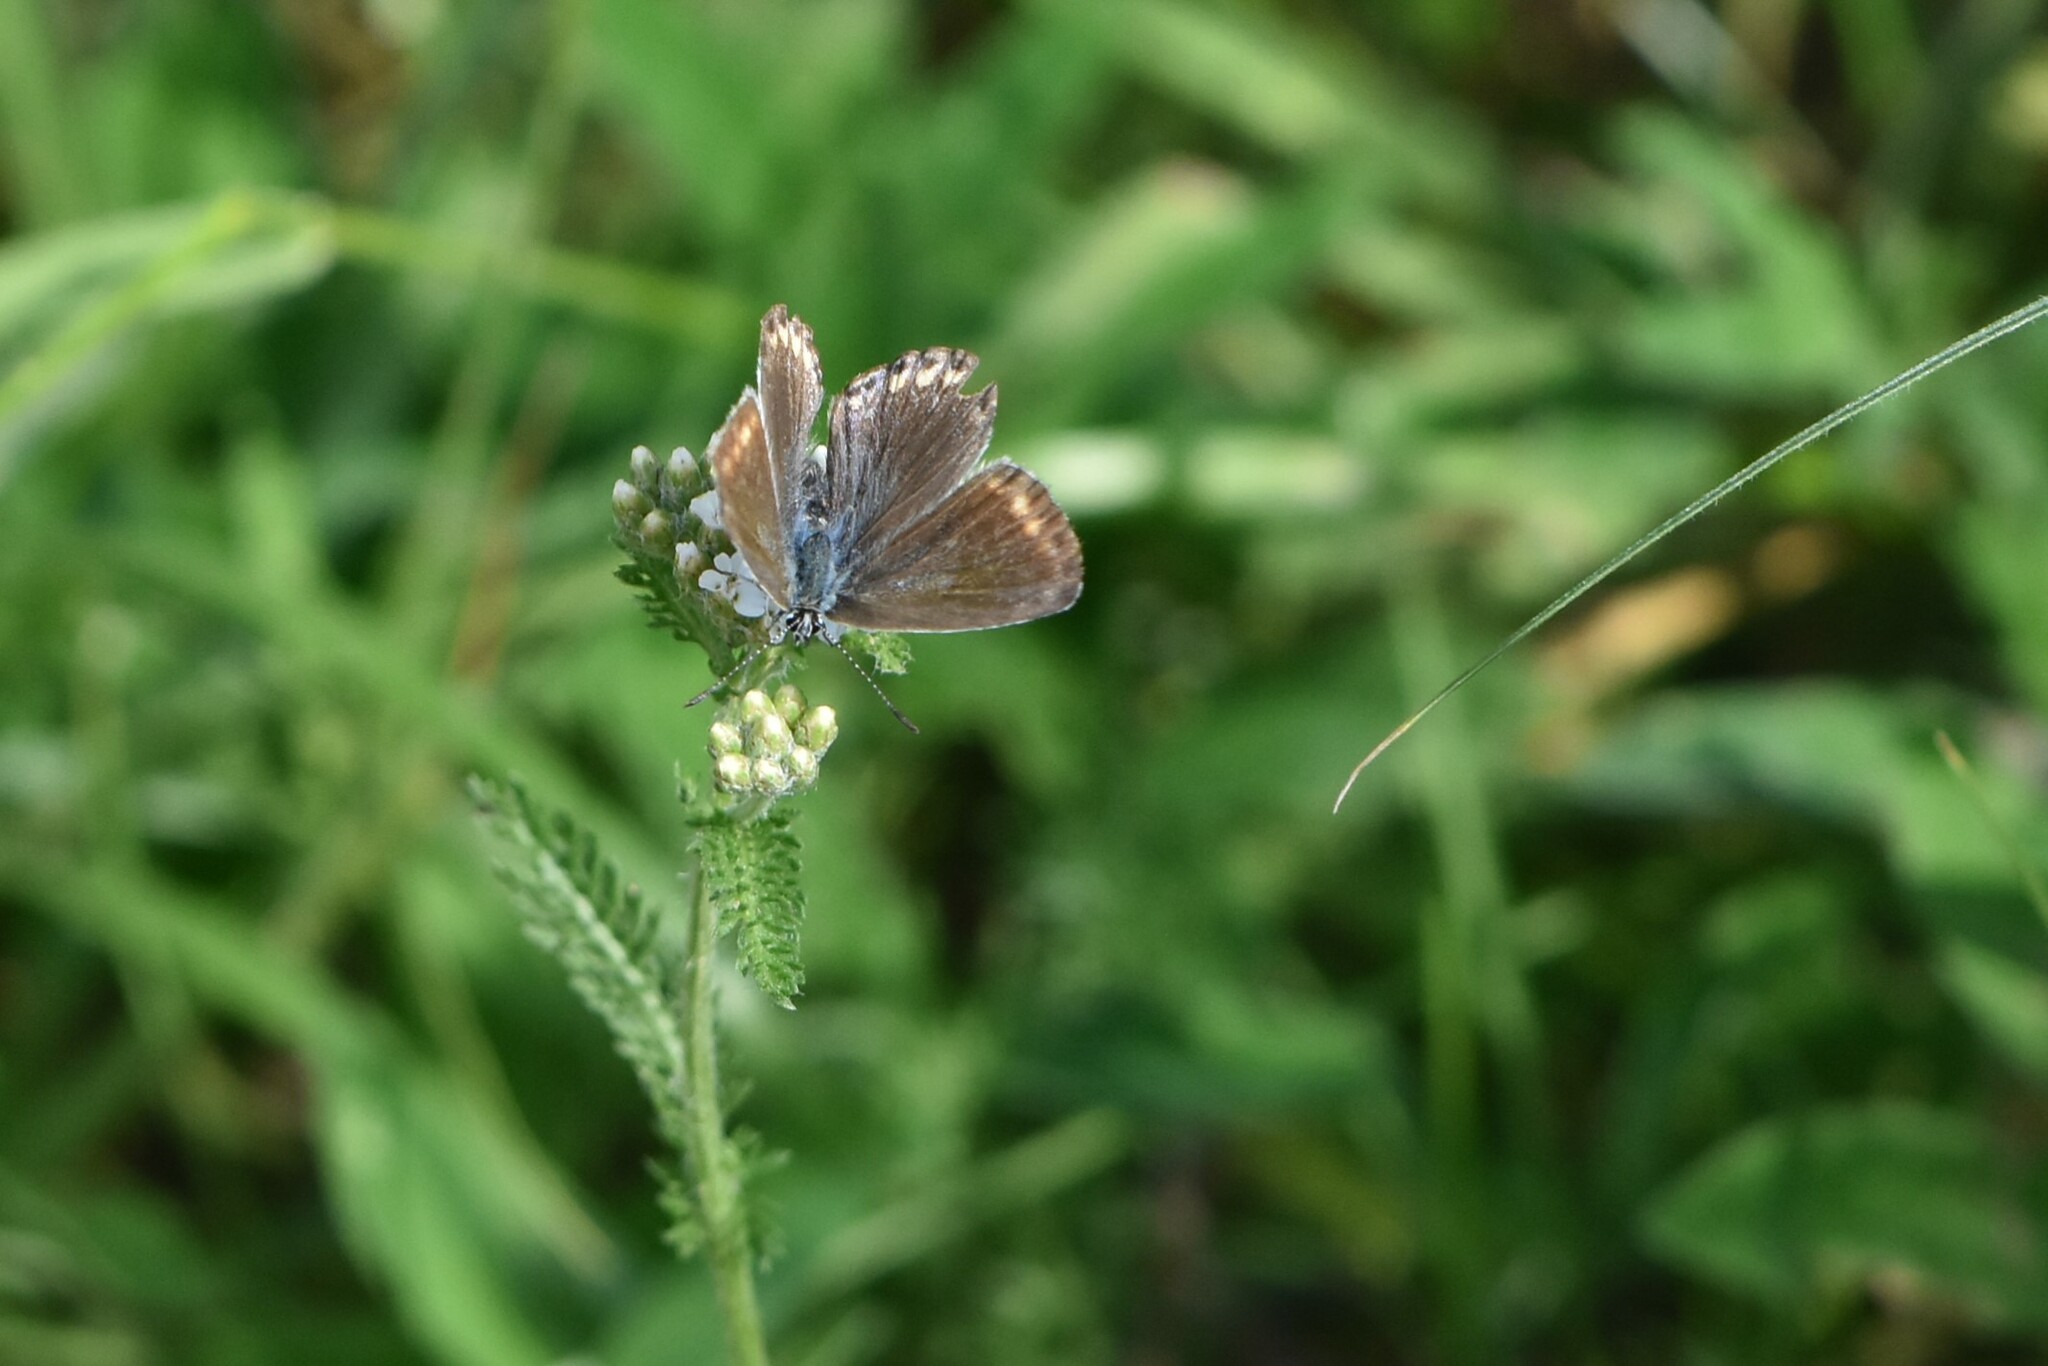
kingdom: Animalia
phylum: Arthropoda
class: Insecta
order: Lepidoptera
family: Lycaenidae
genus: Polyommatus
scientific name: Polyommatus icarus
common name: Common blue
